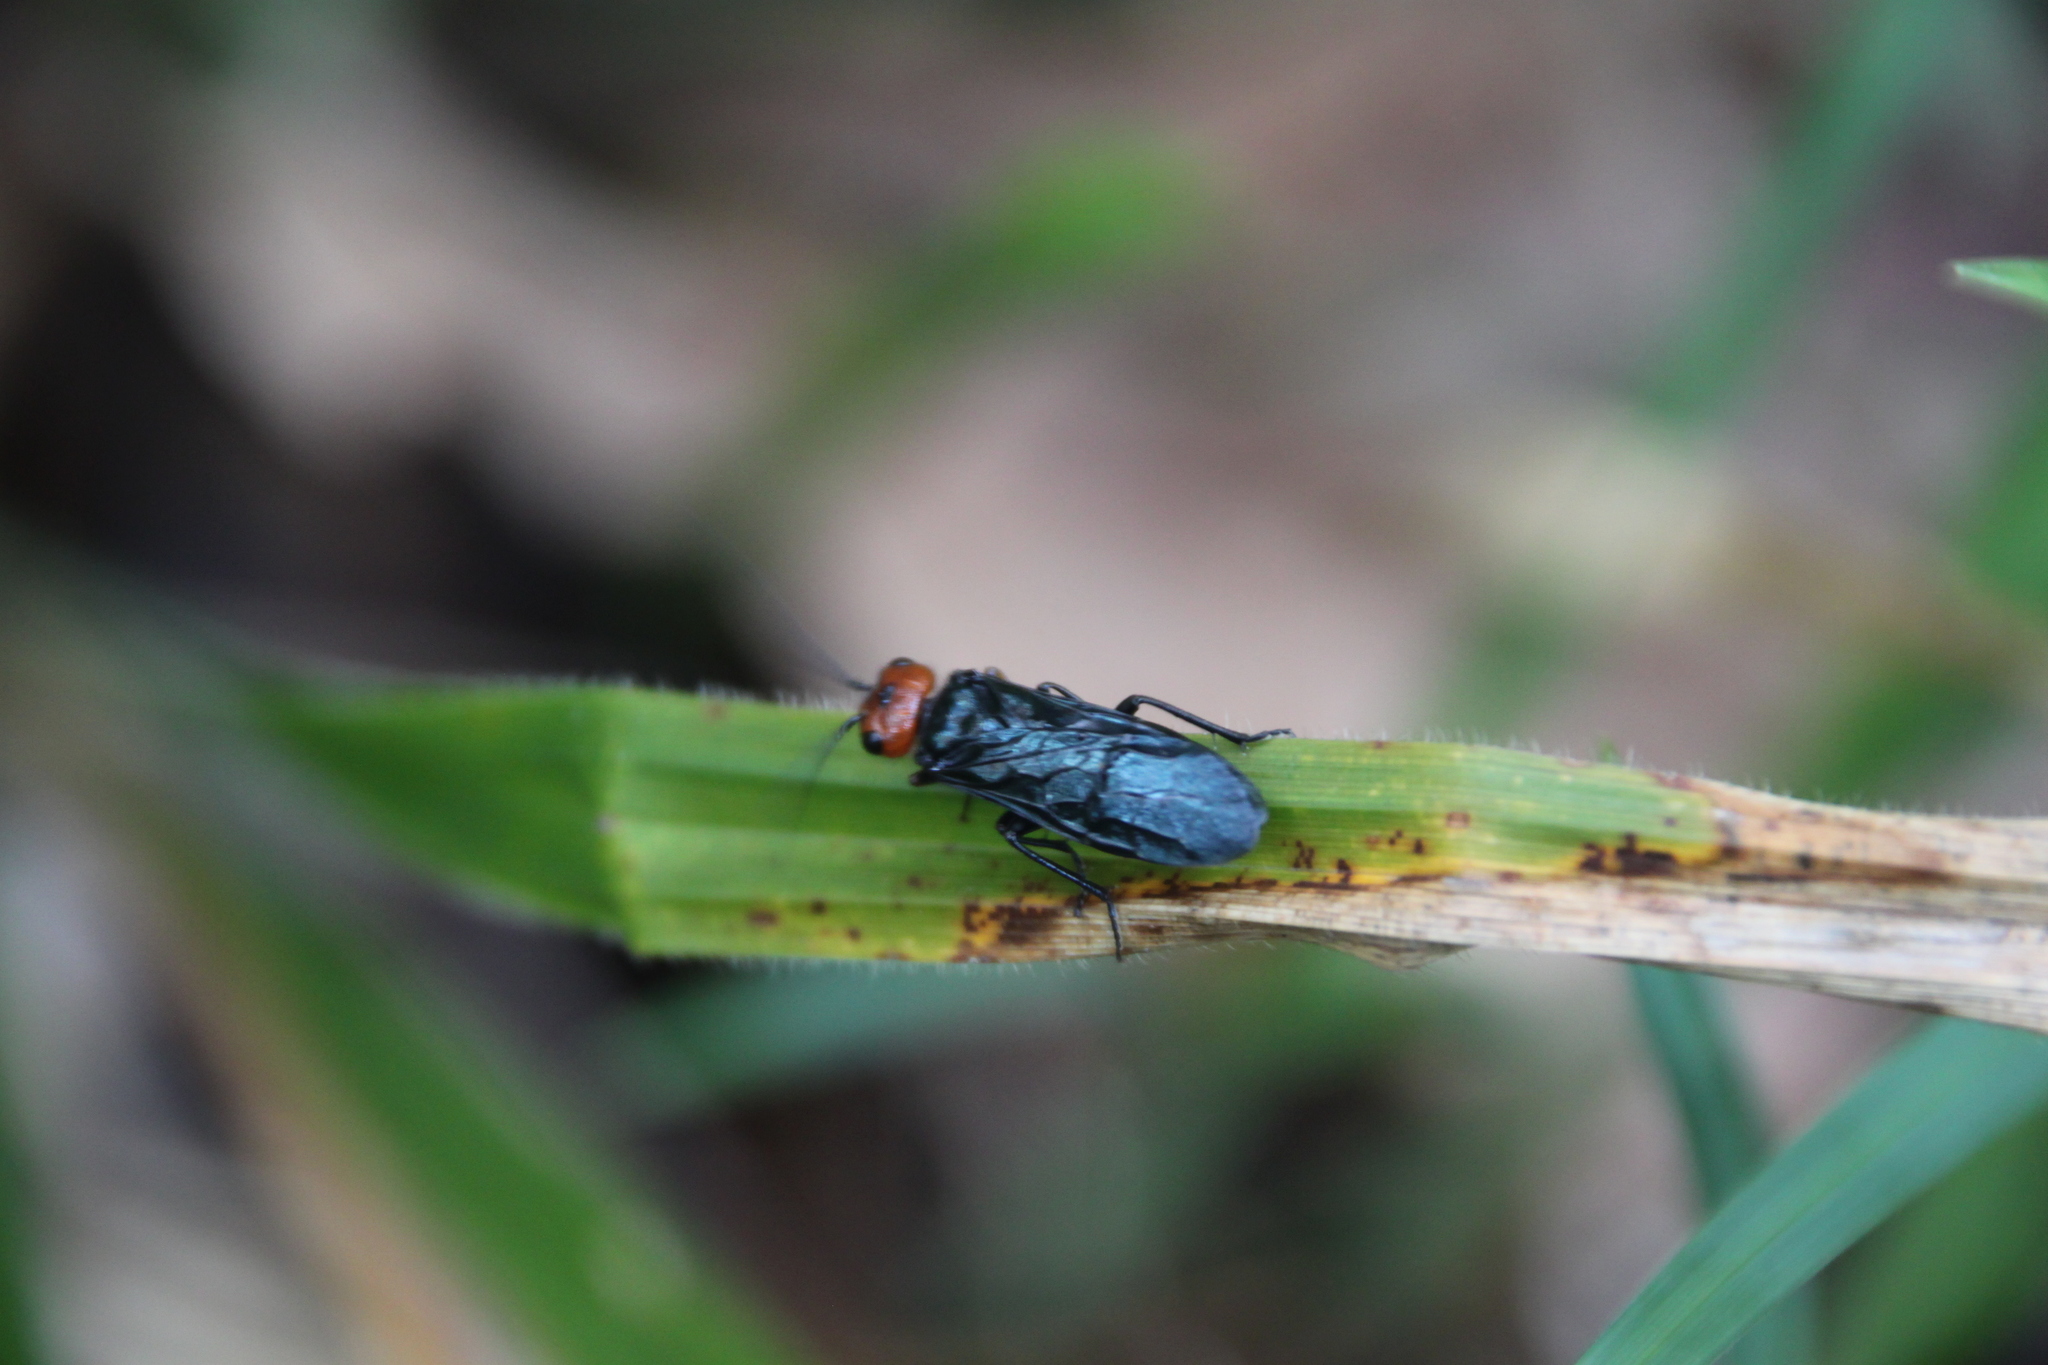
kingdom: Animalia
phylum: Arthropoda
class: Insecta
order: Hymenoptera
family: Pamphiliidae
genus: Acantholyda
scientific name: Acantholyda erythrocephala
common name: Pine false webworm
